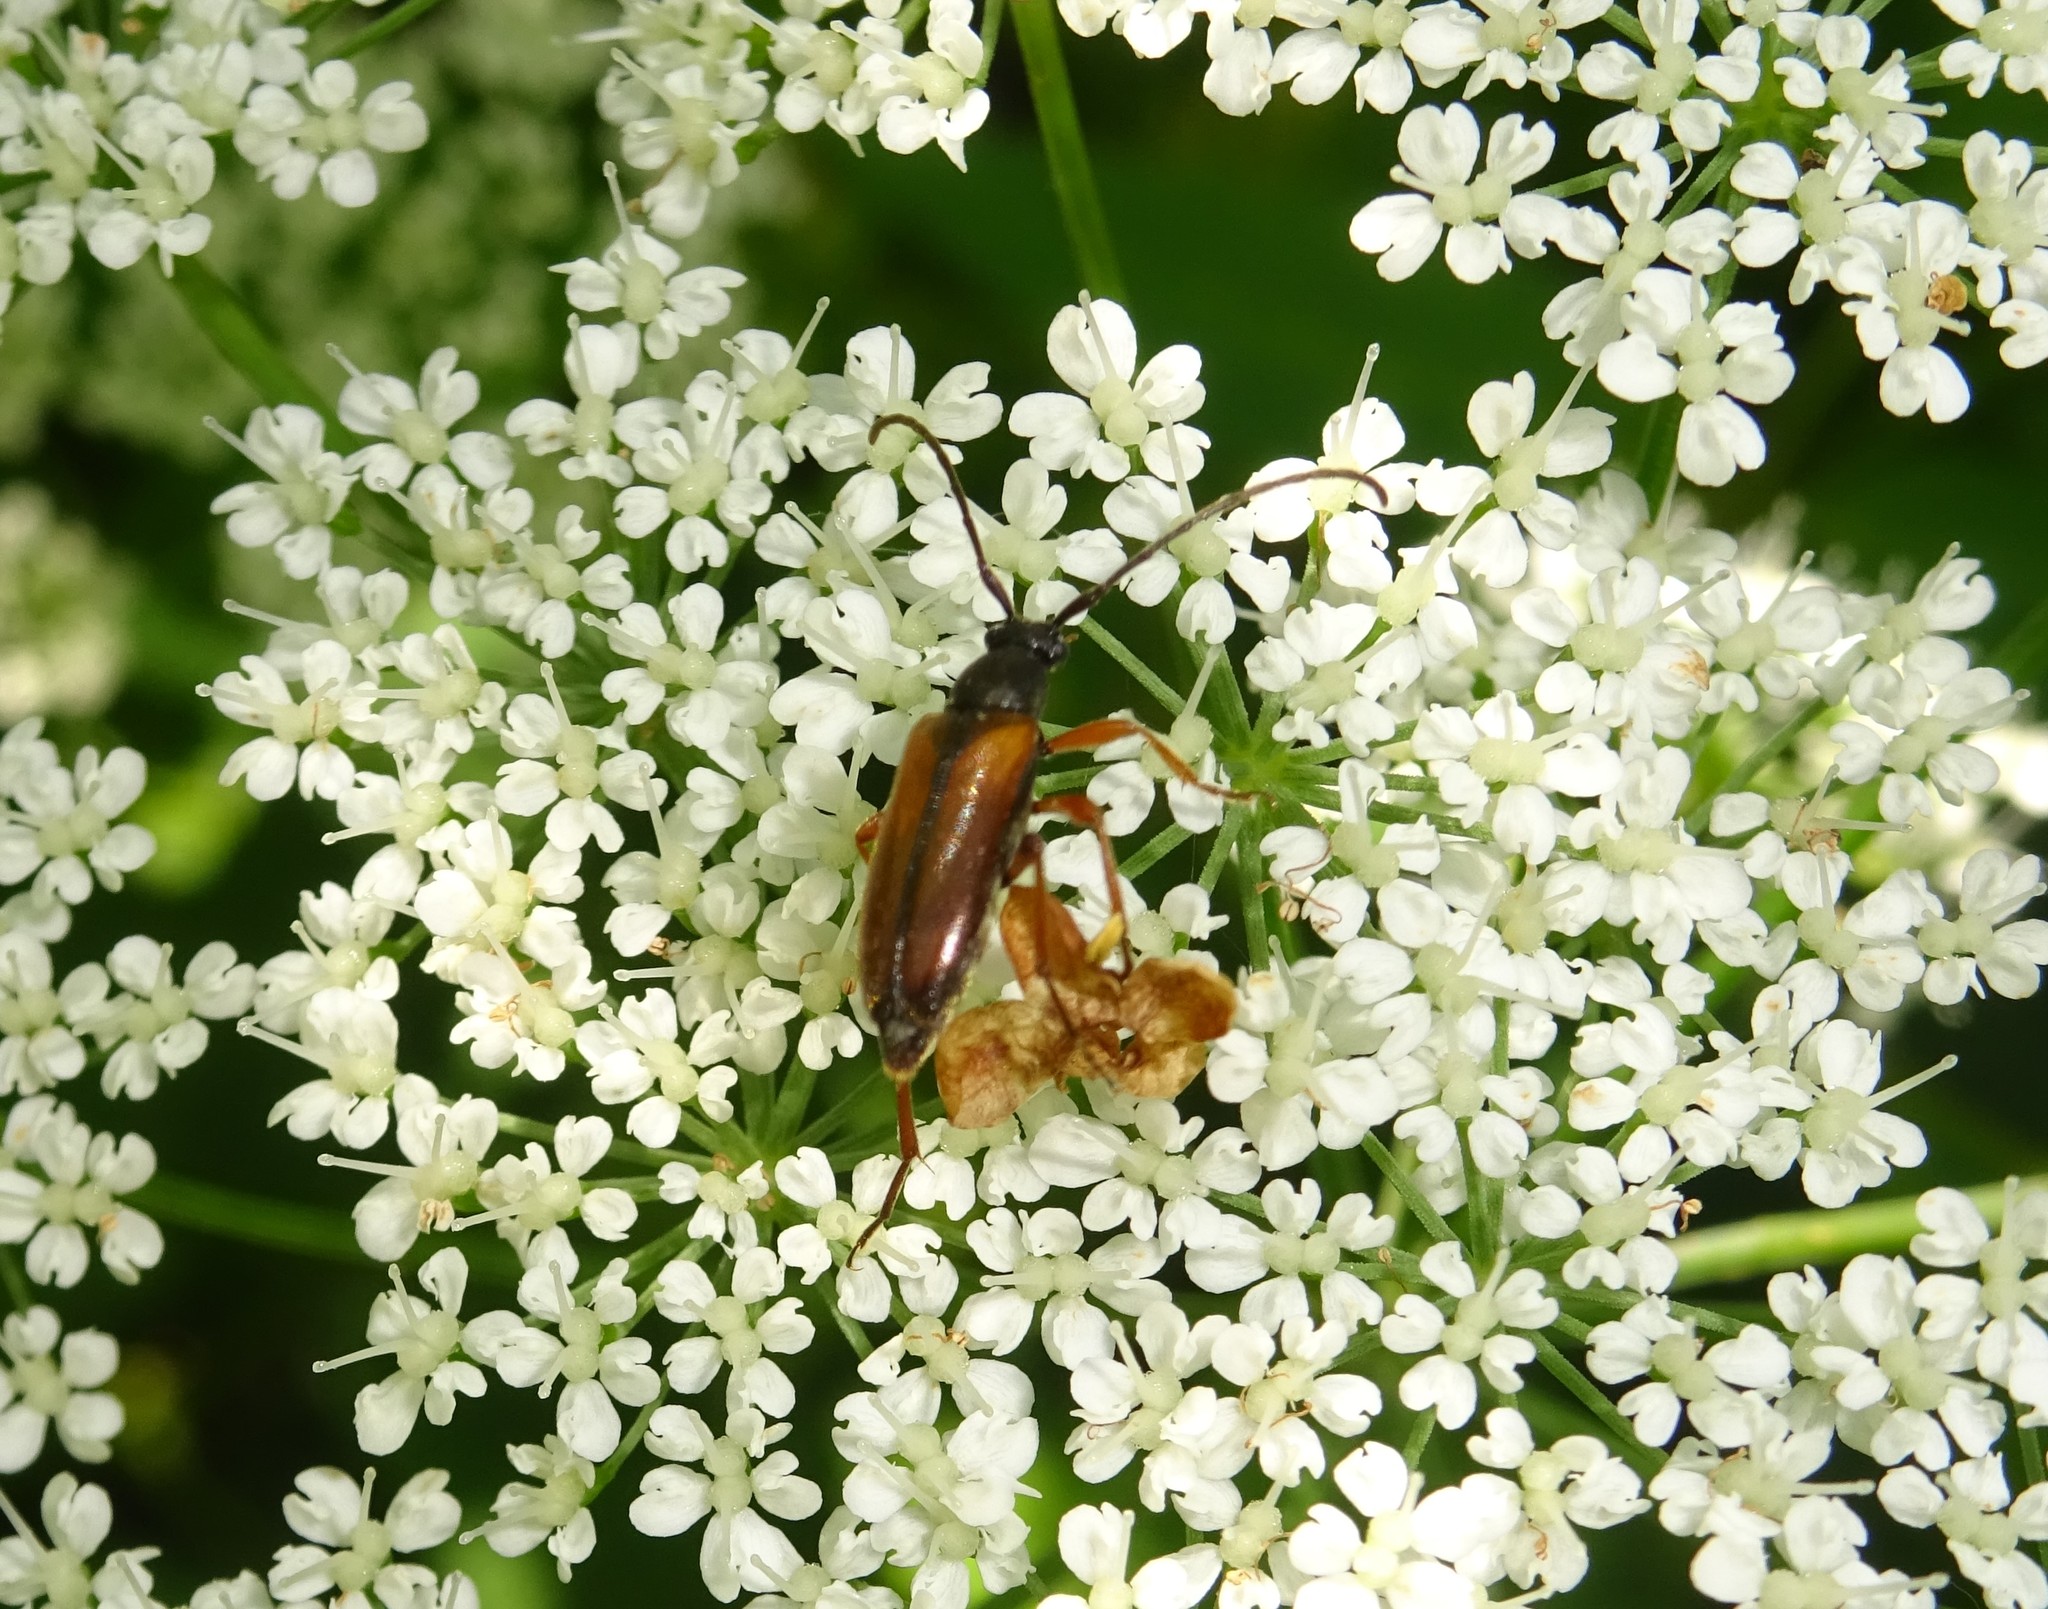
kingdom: Animalia
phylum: Arthropoda
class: Insecta
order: Coleoptera
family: Cerambycidae
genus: Alosterna
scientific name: Alosterna tabacicolor
